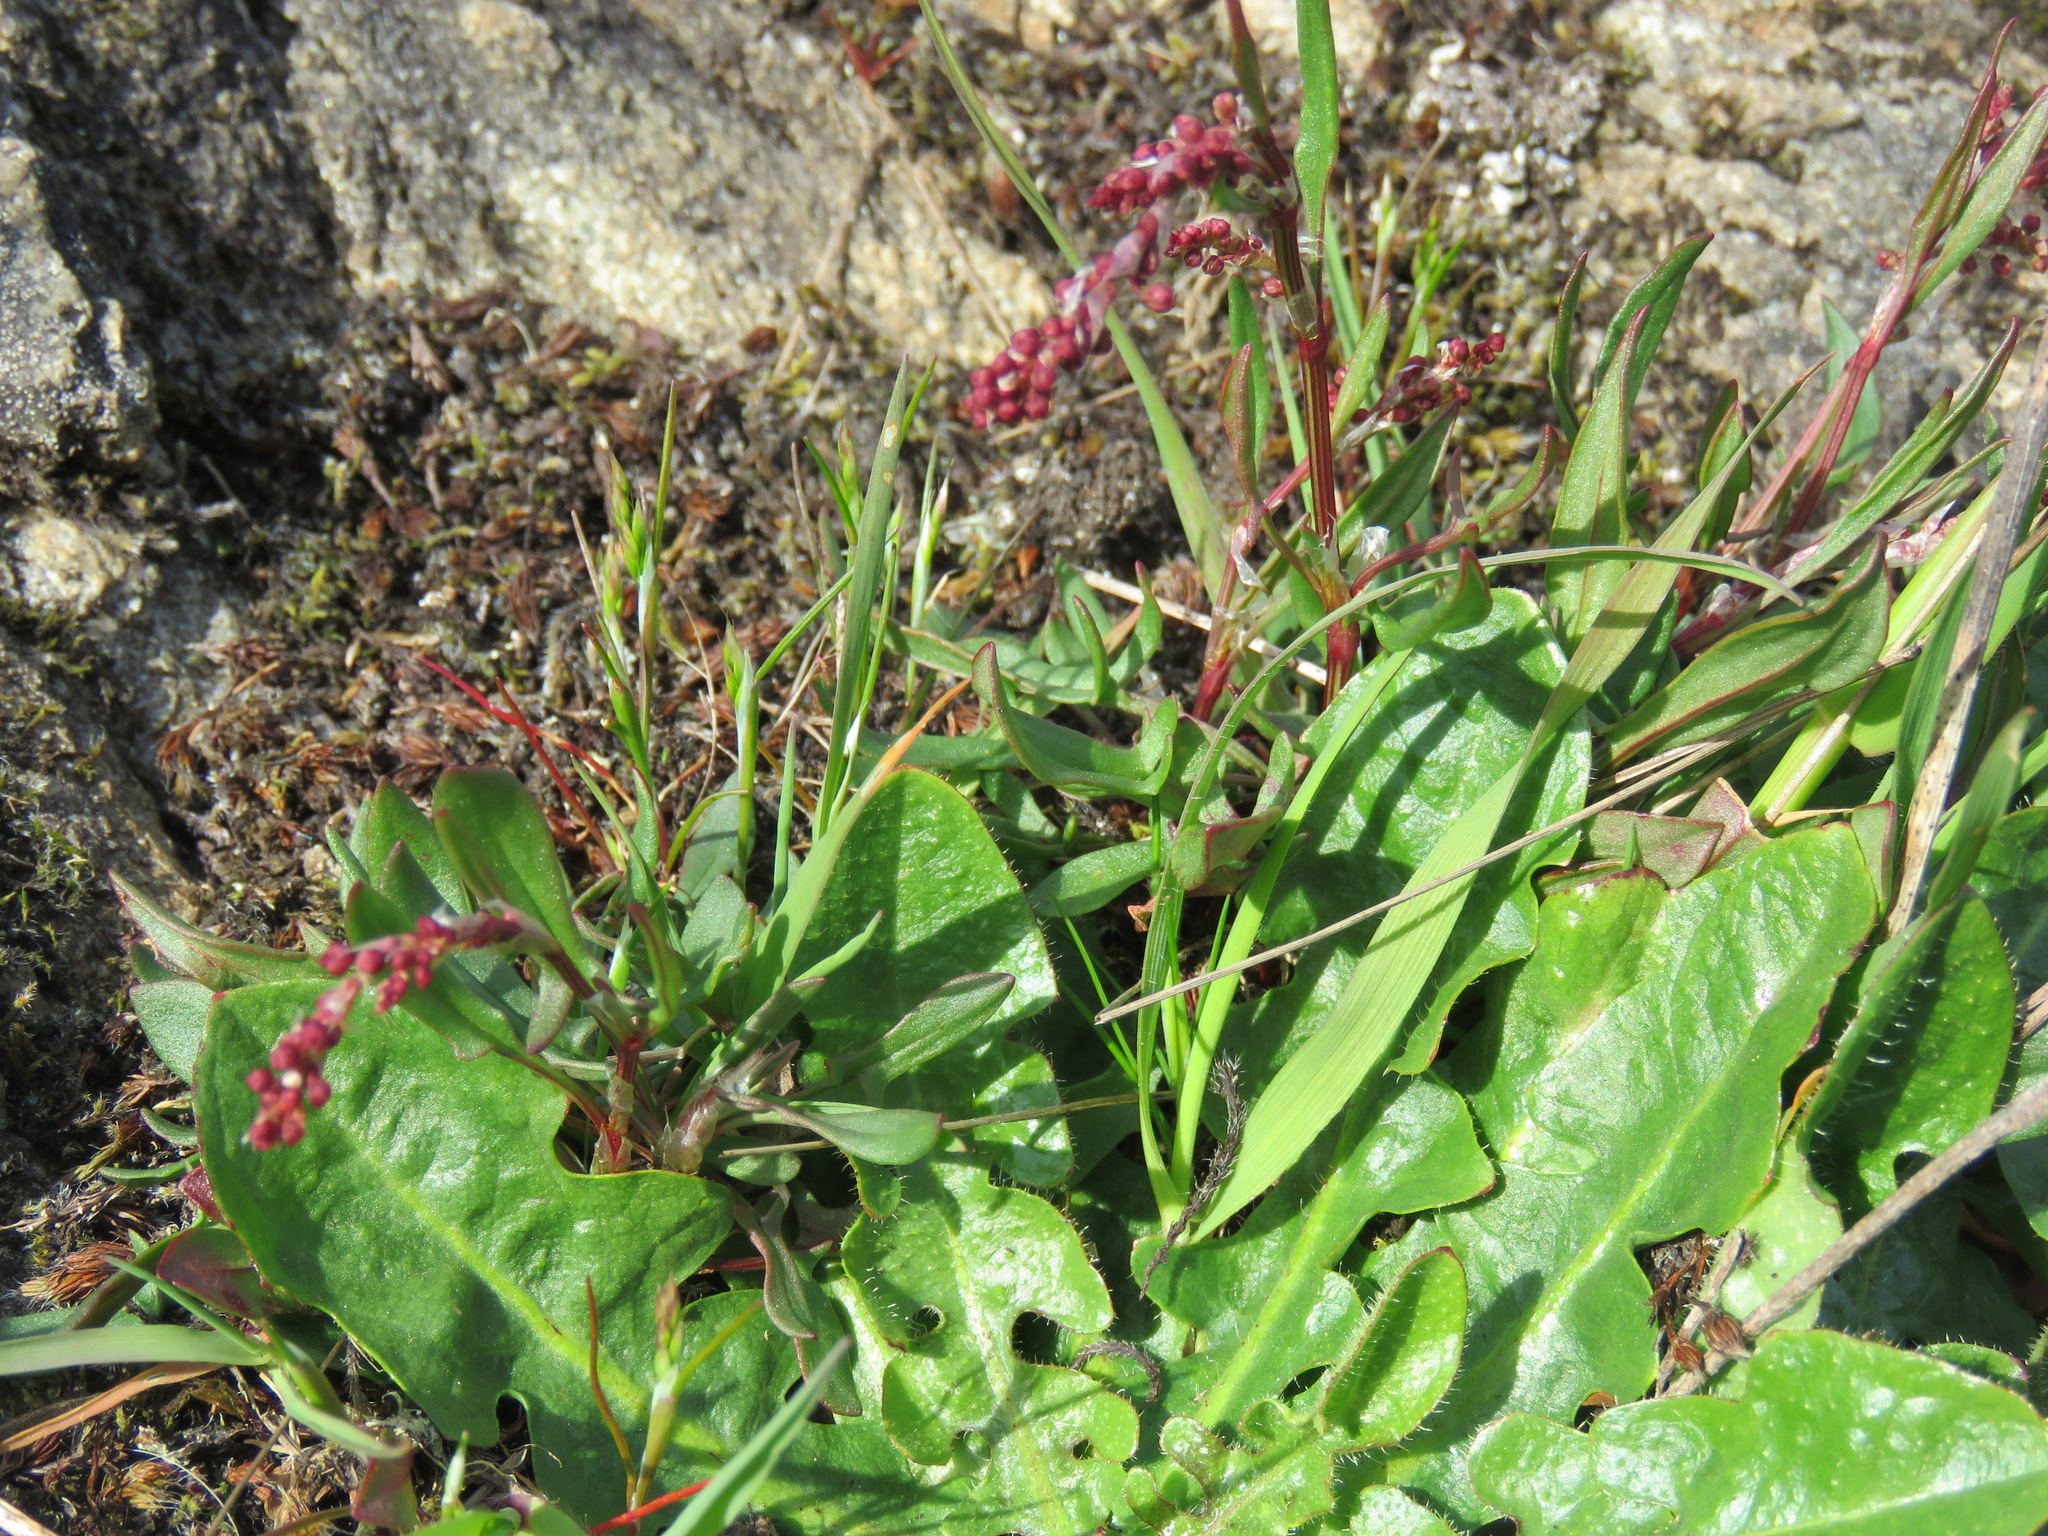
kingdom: Plantae
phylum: Tracheophyta
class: Magnoliopsida
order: Caryophyllales
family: Polygonaceae
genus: Rumex
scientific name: Rumex acetosella
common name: Common sheep sorrel
